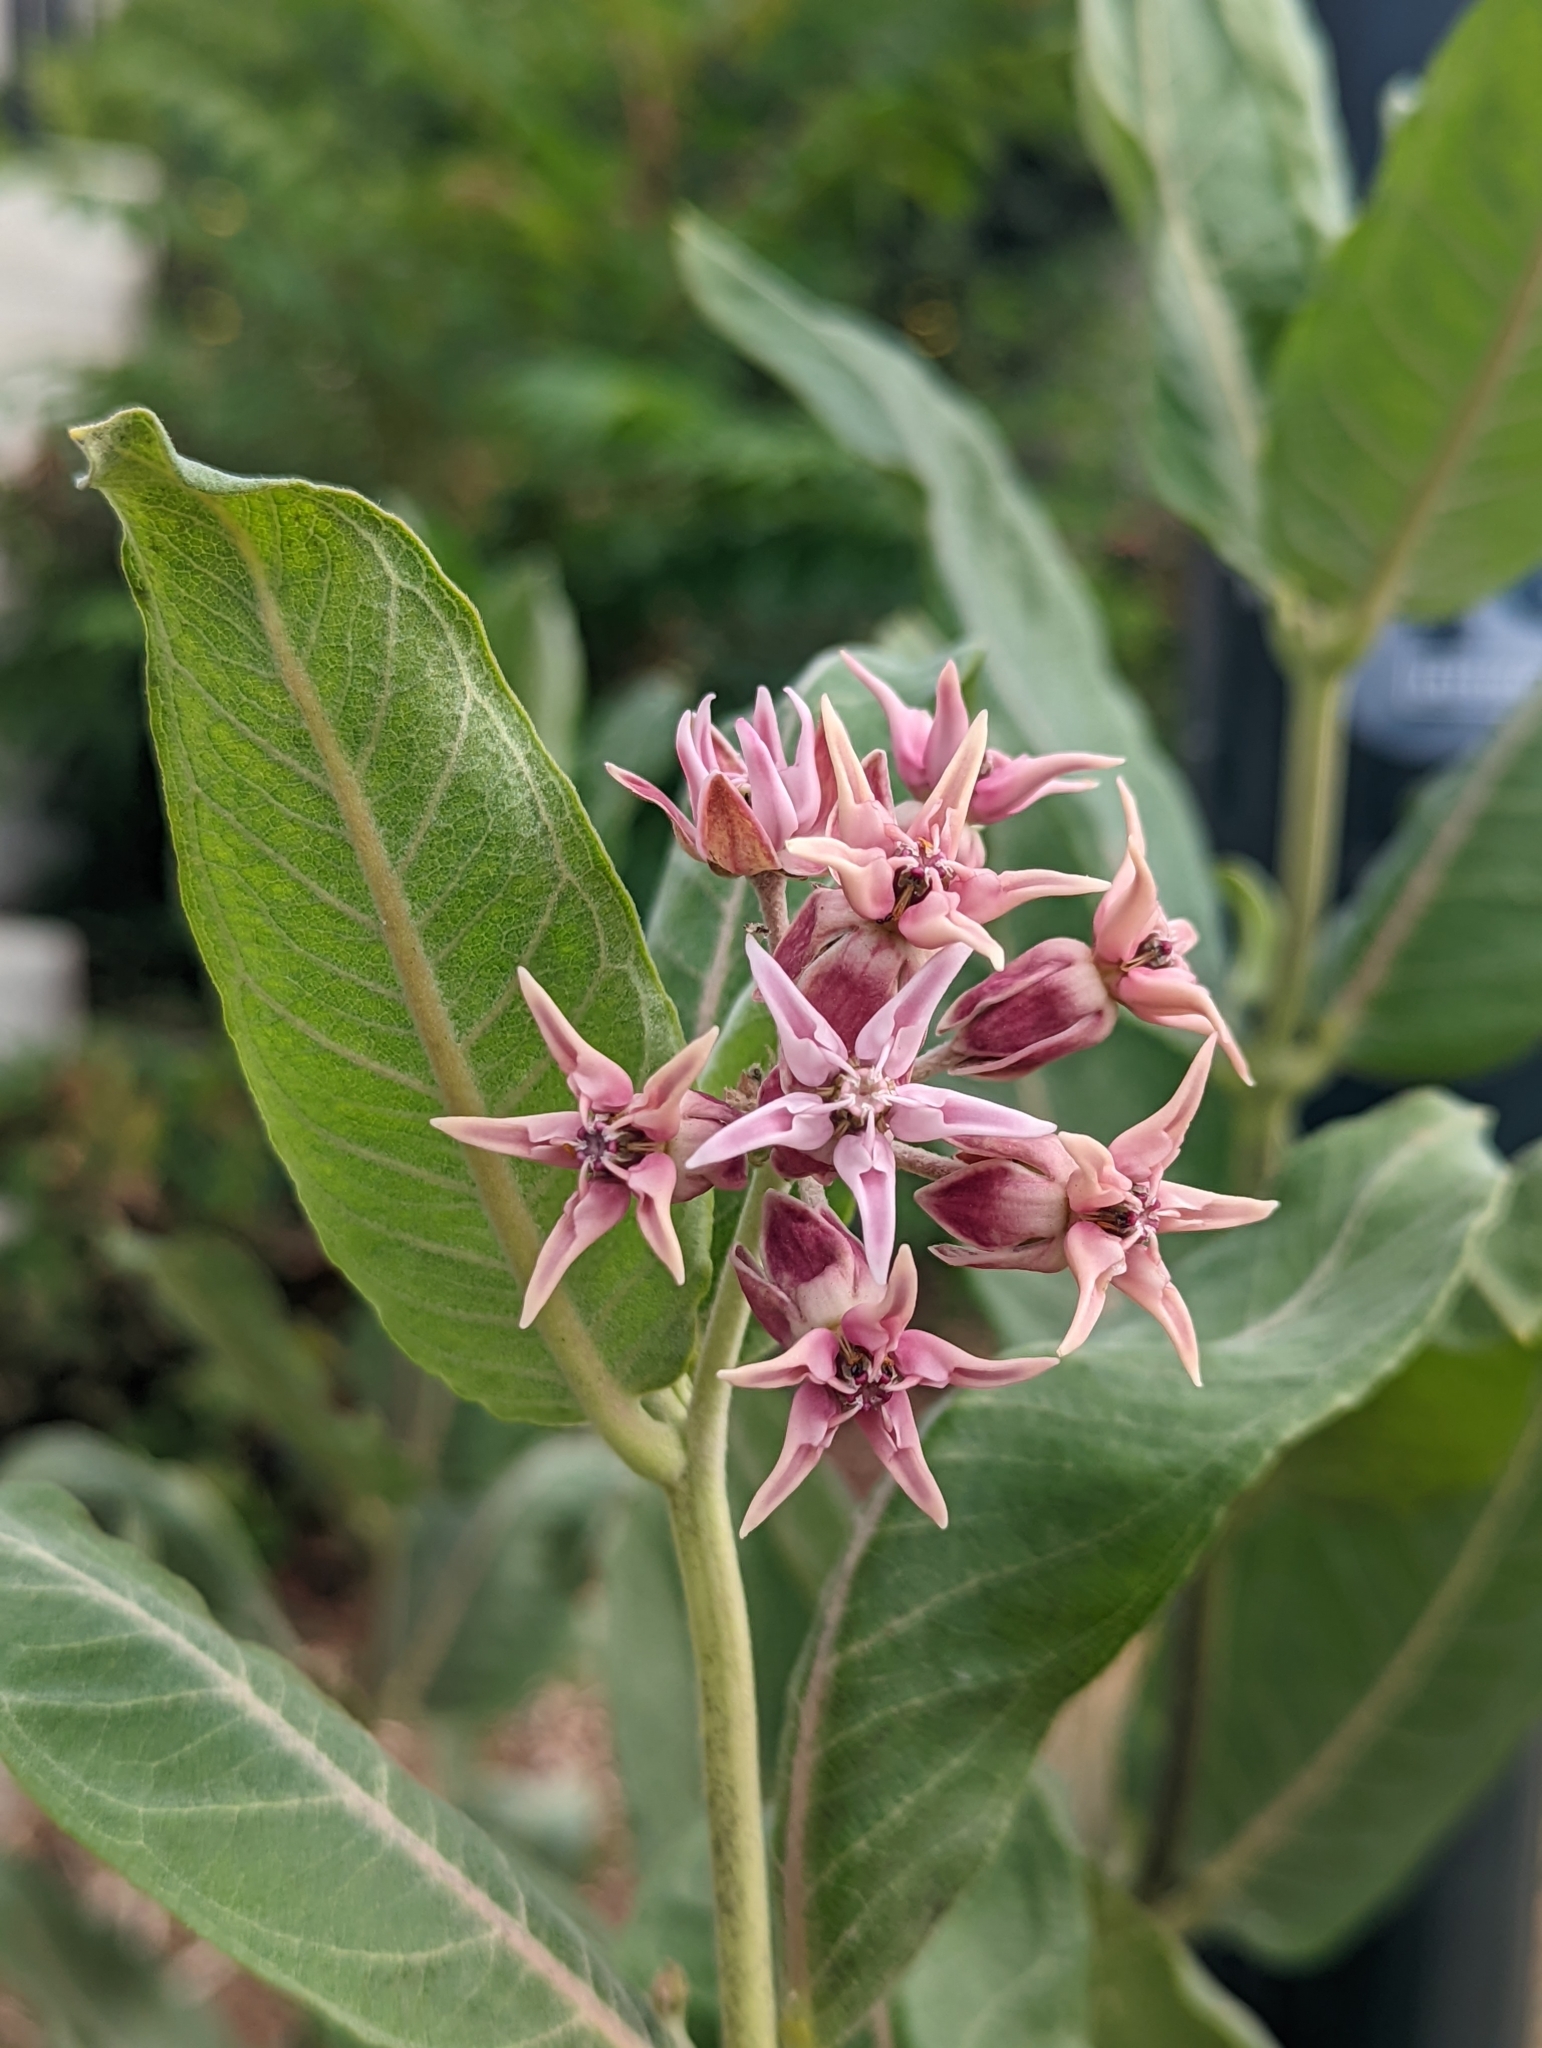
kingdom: Plantae
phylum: Tracheophyta
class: Magnoliopsida
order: Gentianales
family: Apocynaceae
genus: Asclepias
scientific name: Asclepias speciosa
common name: Showy milkweed
